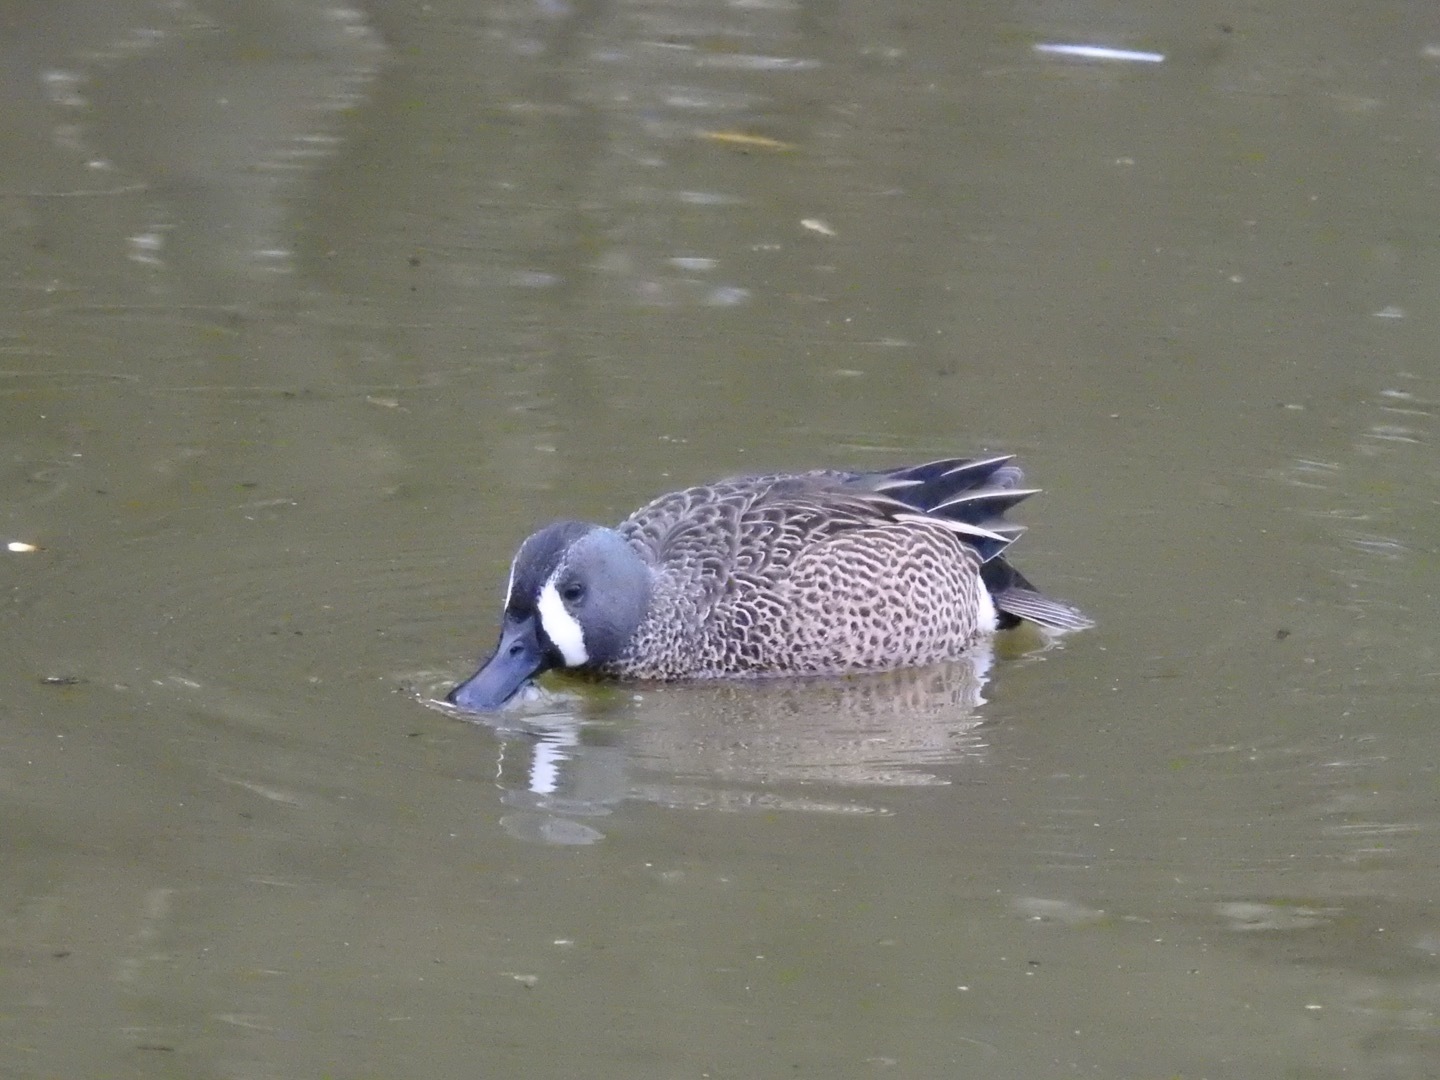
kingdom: Animalia
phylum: Chordata
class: Aves
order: Anseriformes
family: Anatidae
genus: Spatula
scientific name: Spatula discors
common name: Blue-winged teal
